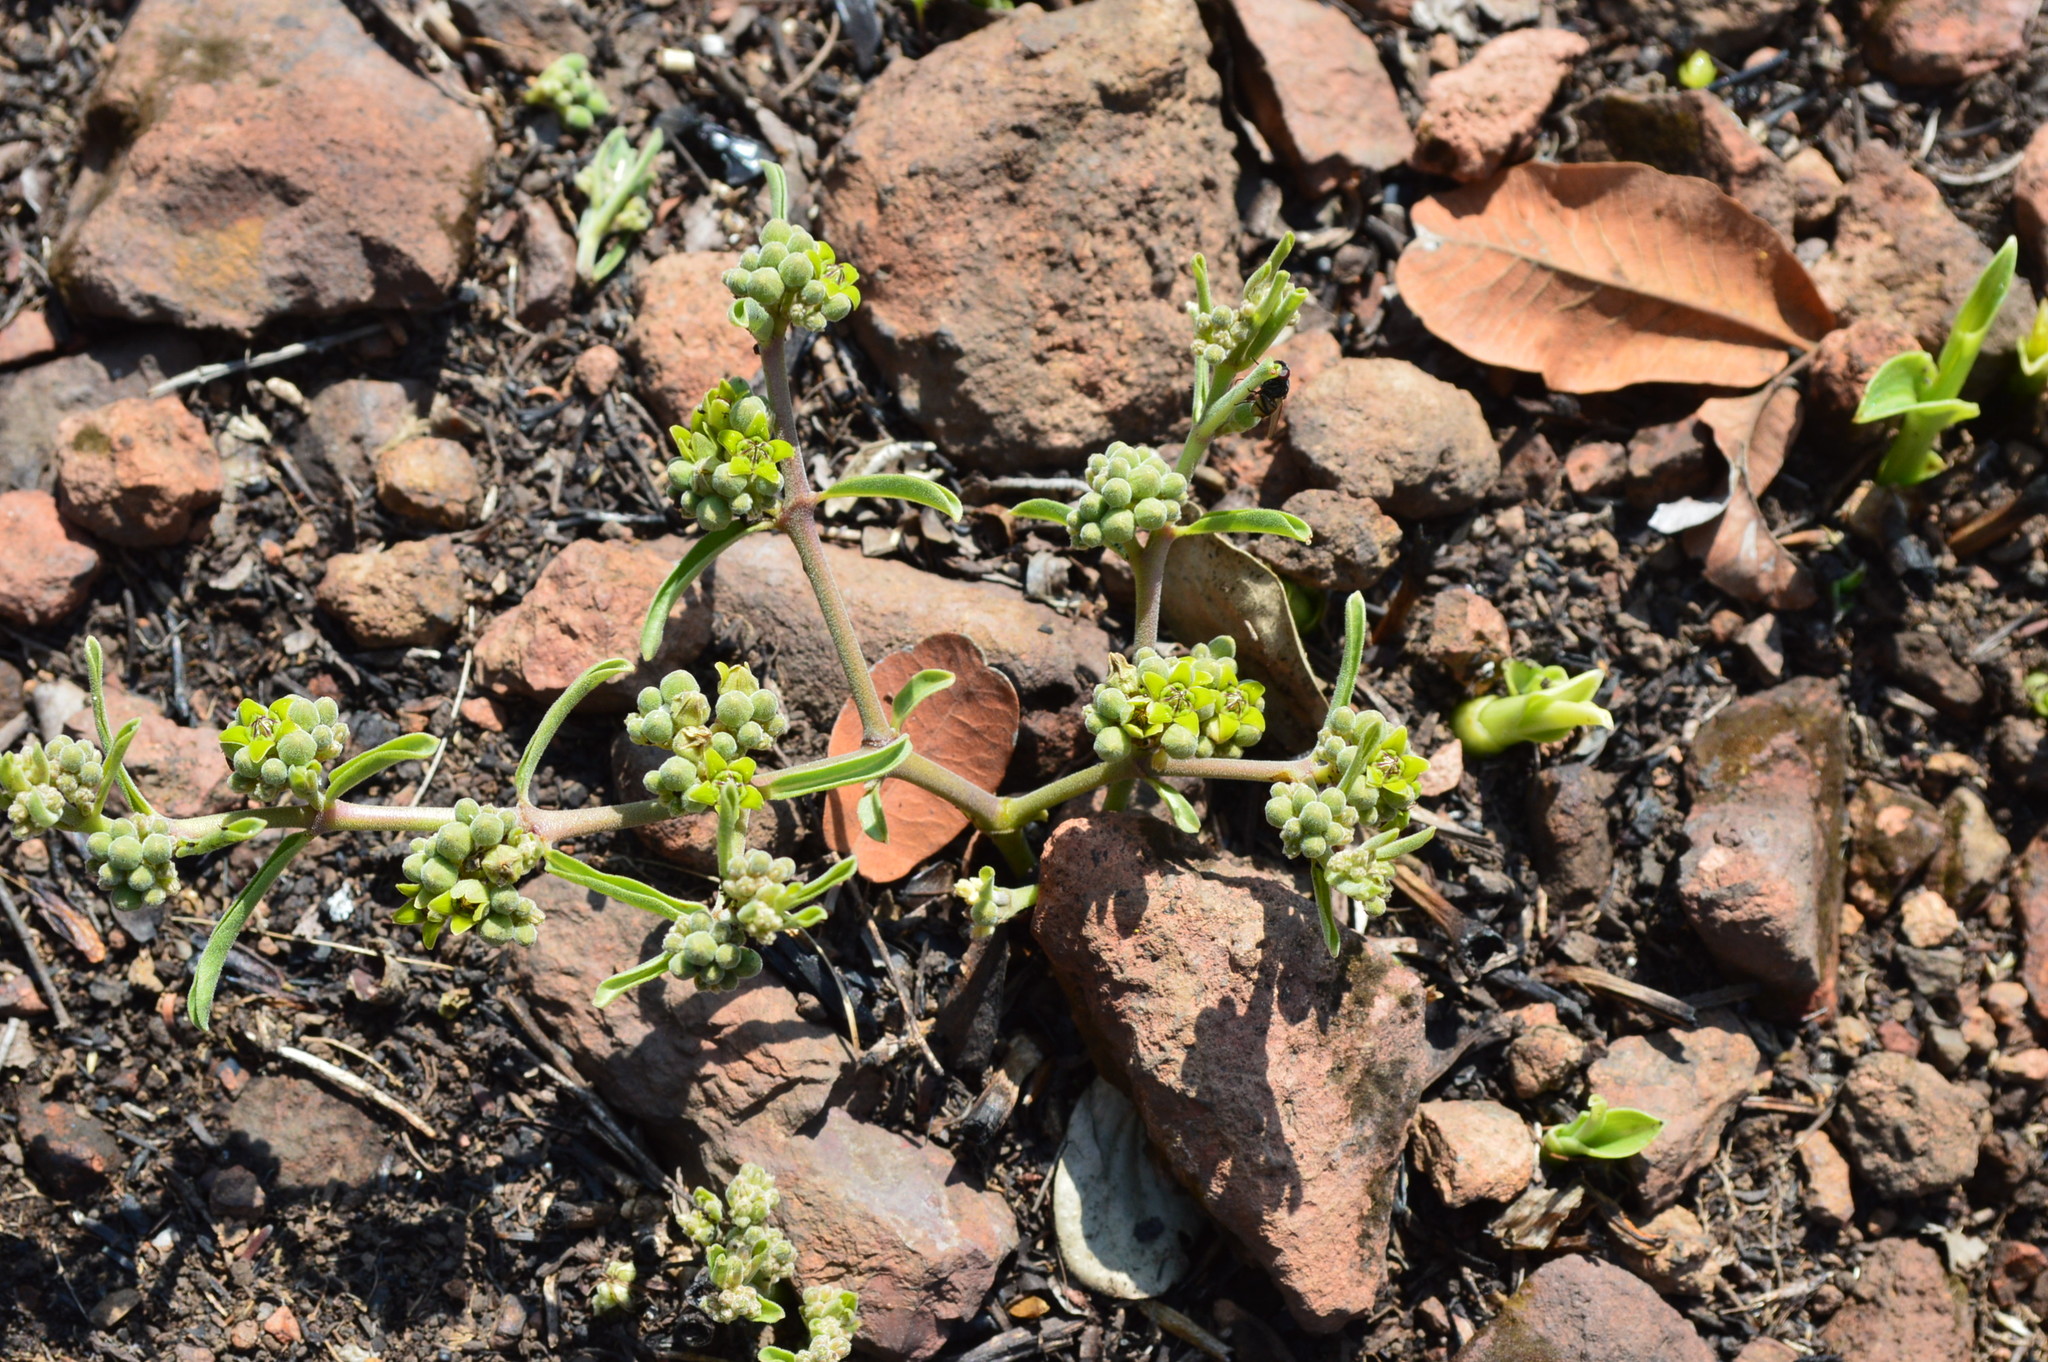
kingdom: Plantae
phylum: Tracheophyta
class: Magnoliopsida
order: Gentianales
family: Apocynaceae
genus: Raphionacme
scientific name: Raphionacme velutina
